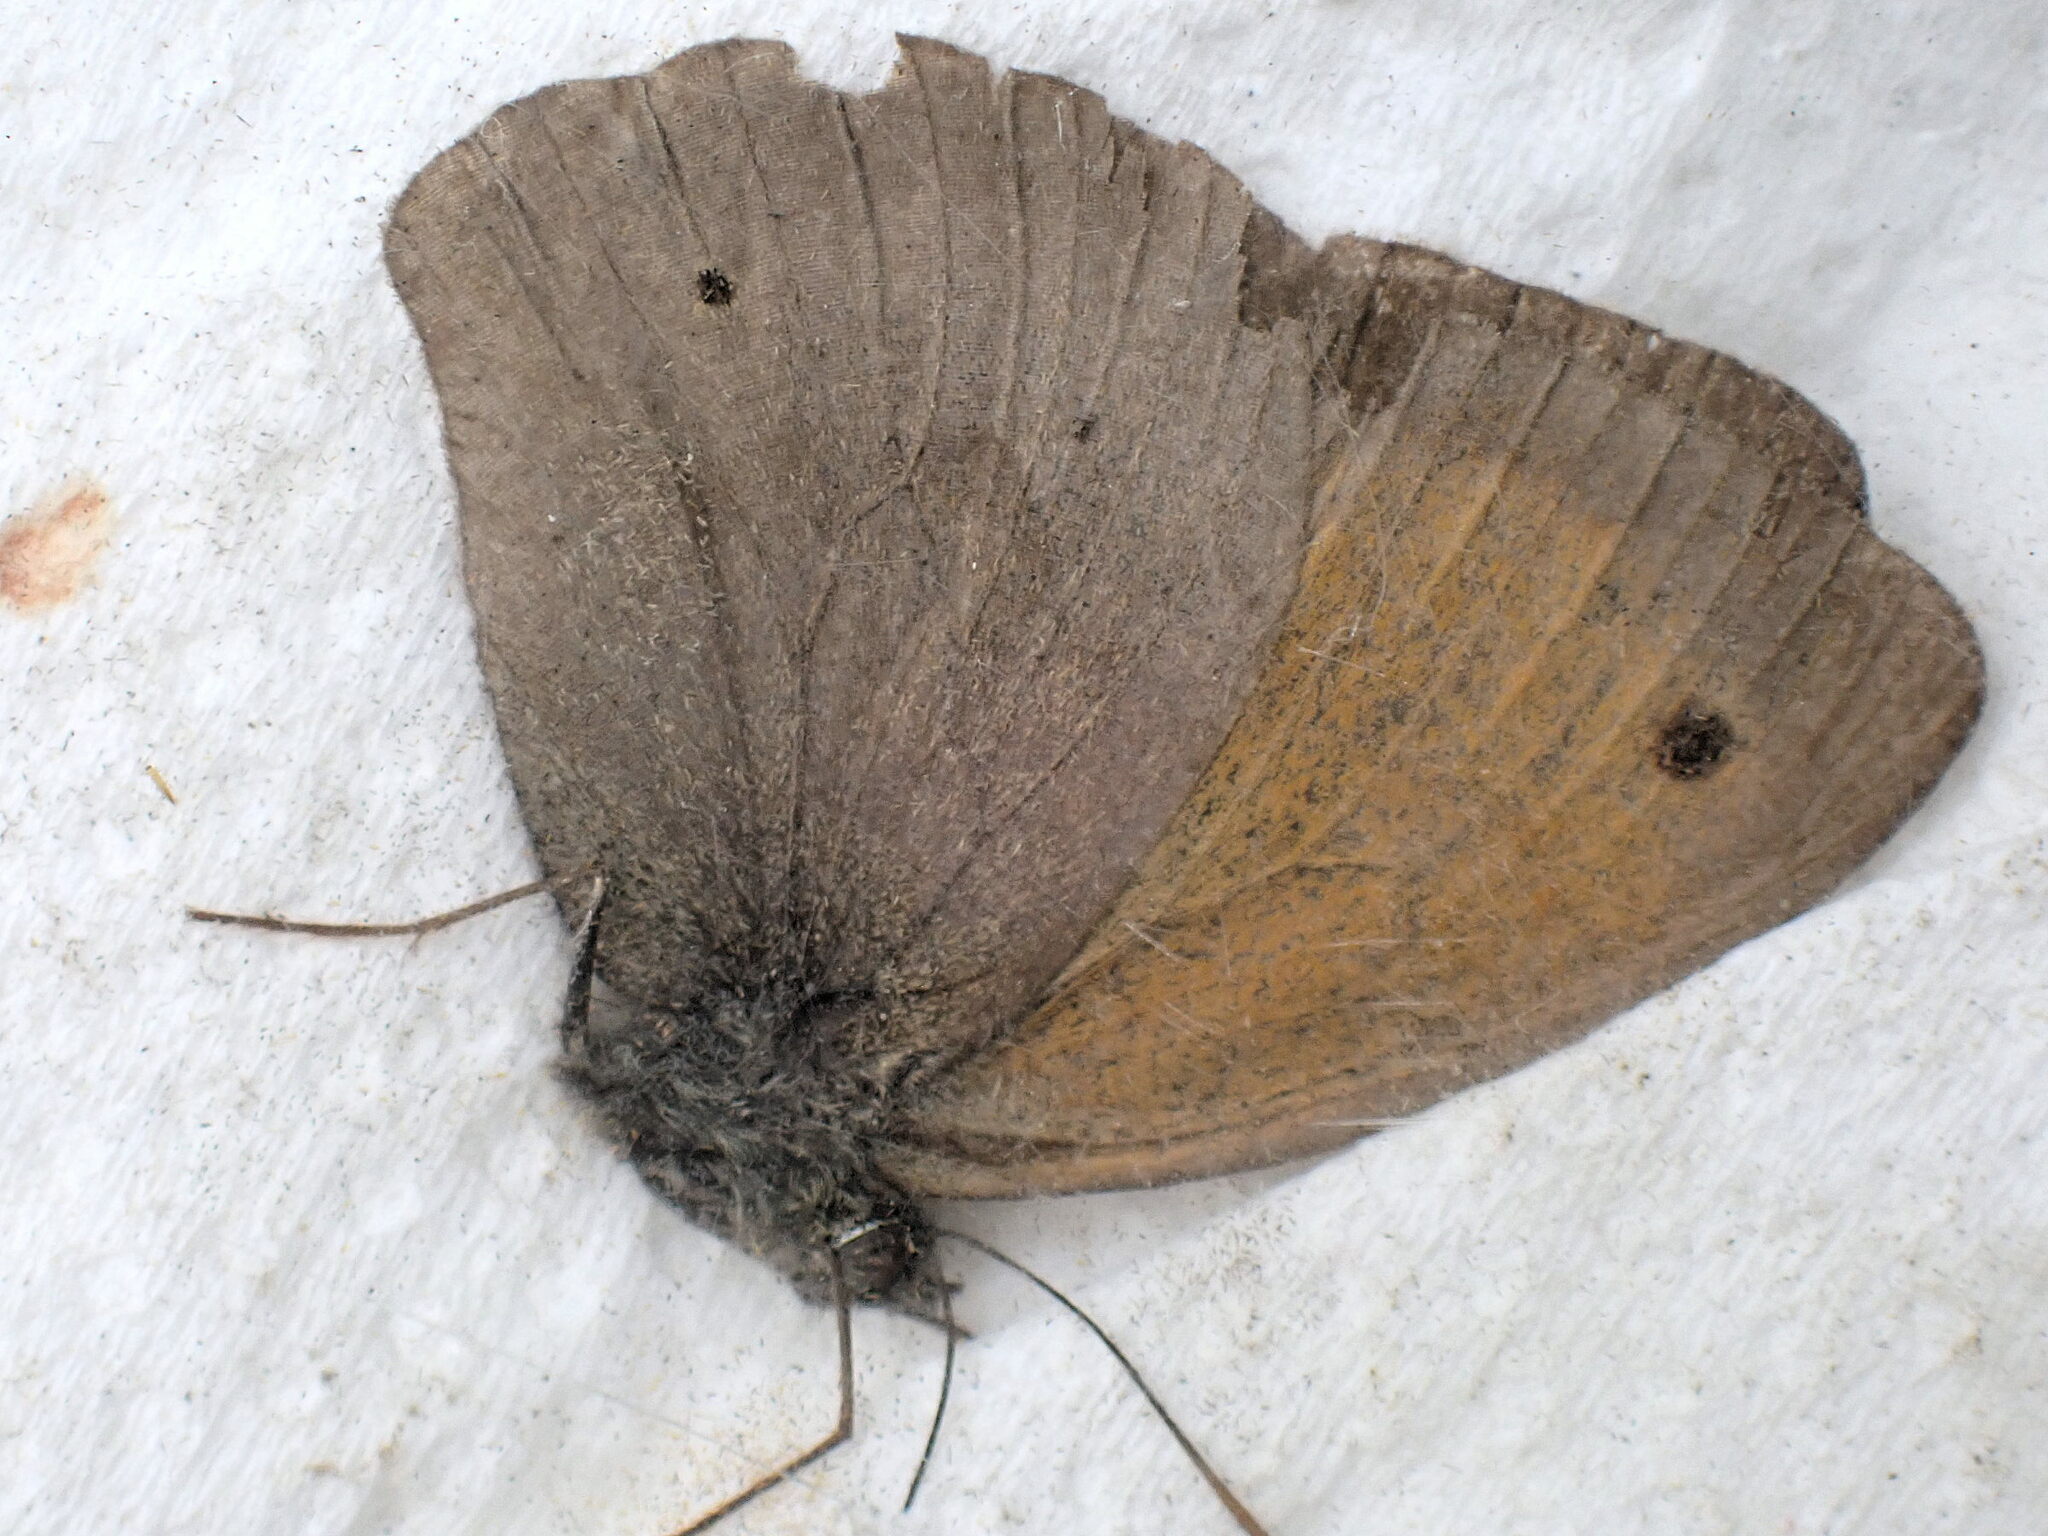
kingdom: Animalia
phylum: Arthropoda
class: Insecta
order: Lepidoptera
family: Nymphalidae
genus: Maniola
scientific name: Maniola jurtina
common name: Meadow brown
